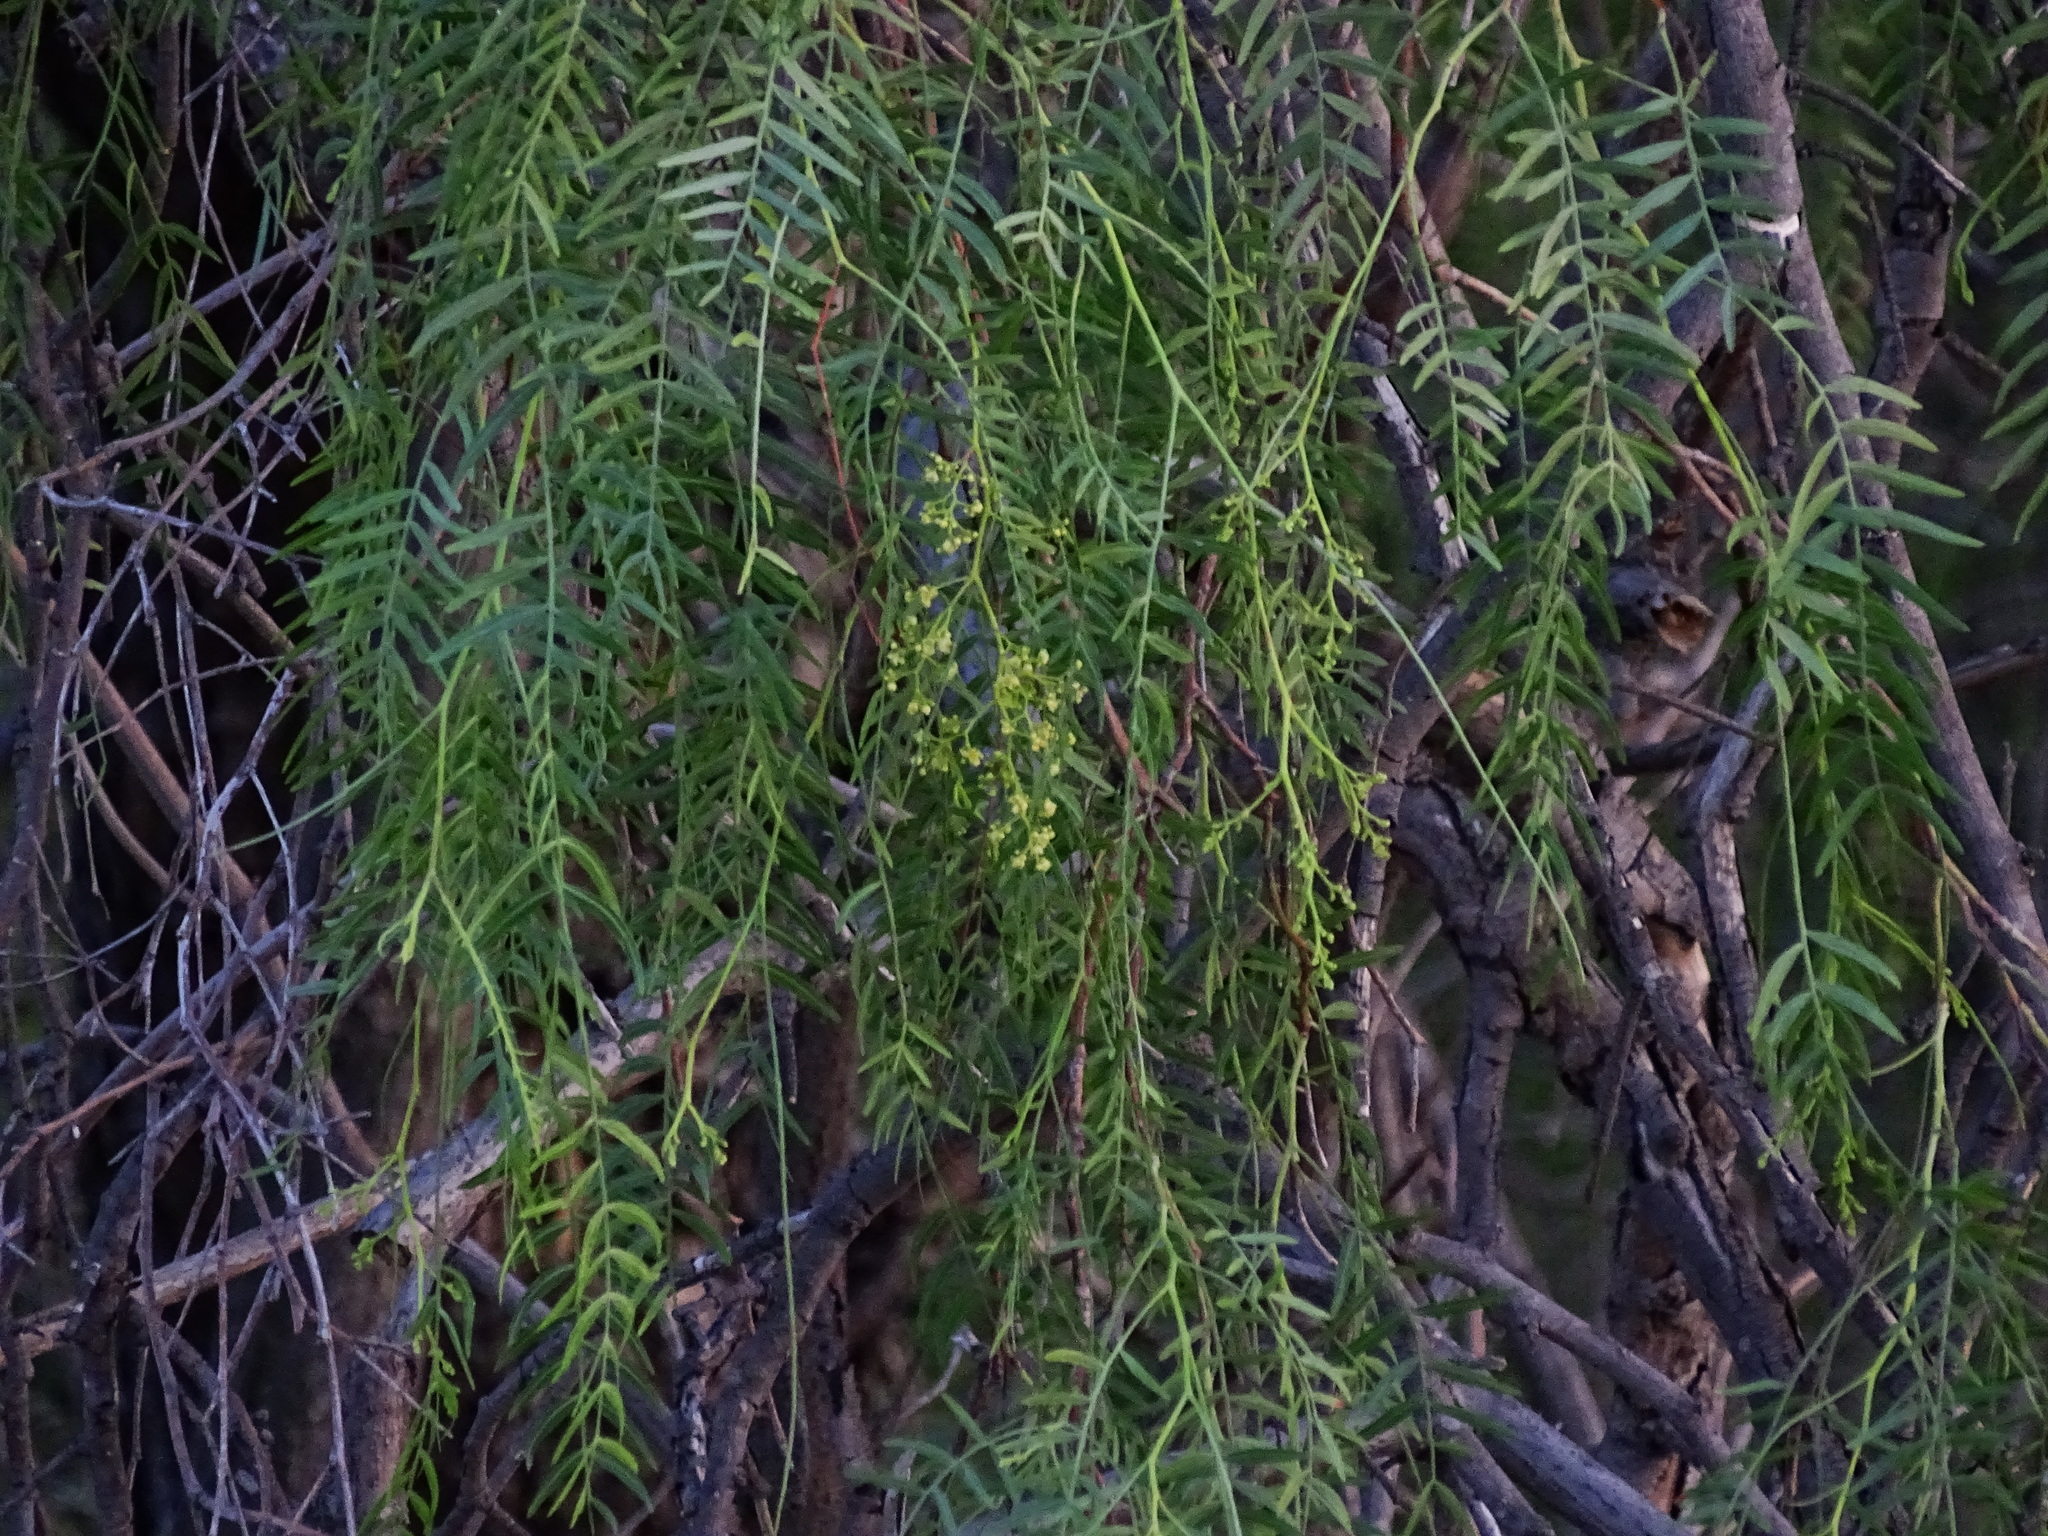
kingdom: Plantae
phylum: Tracheophyta
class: Magnoliopsida
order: Sapindales
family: Anacardiaceae
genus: Schinus
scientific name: Schinus molle
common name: Peruvian peppertree
